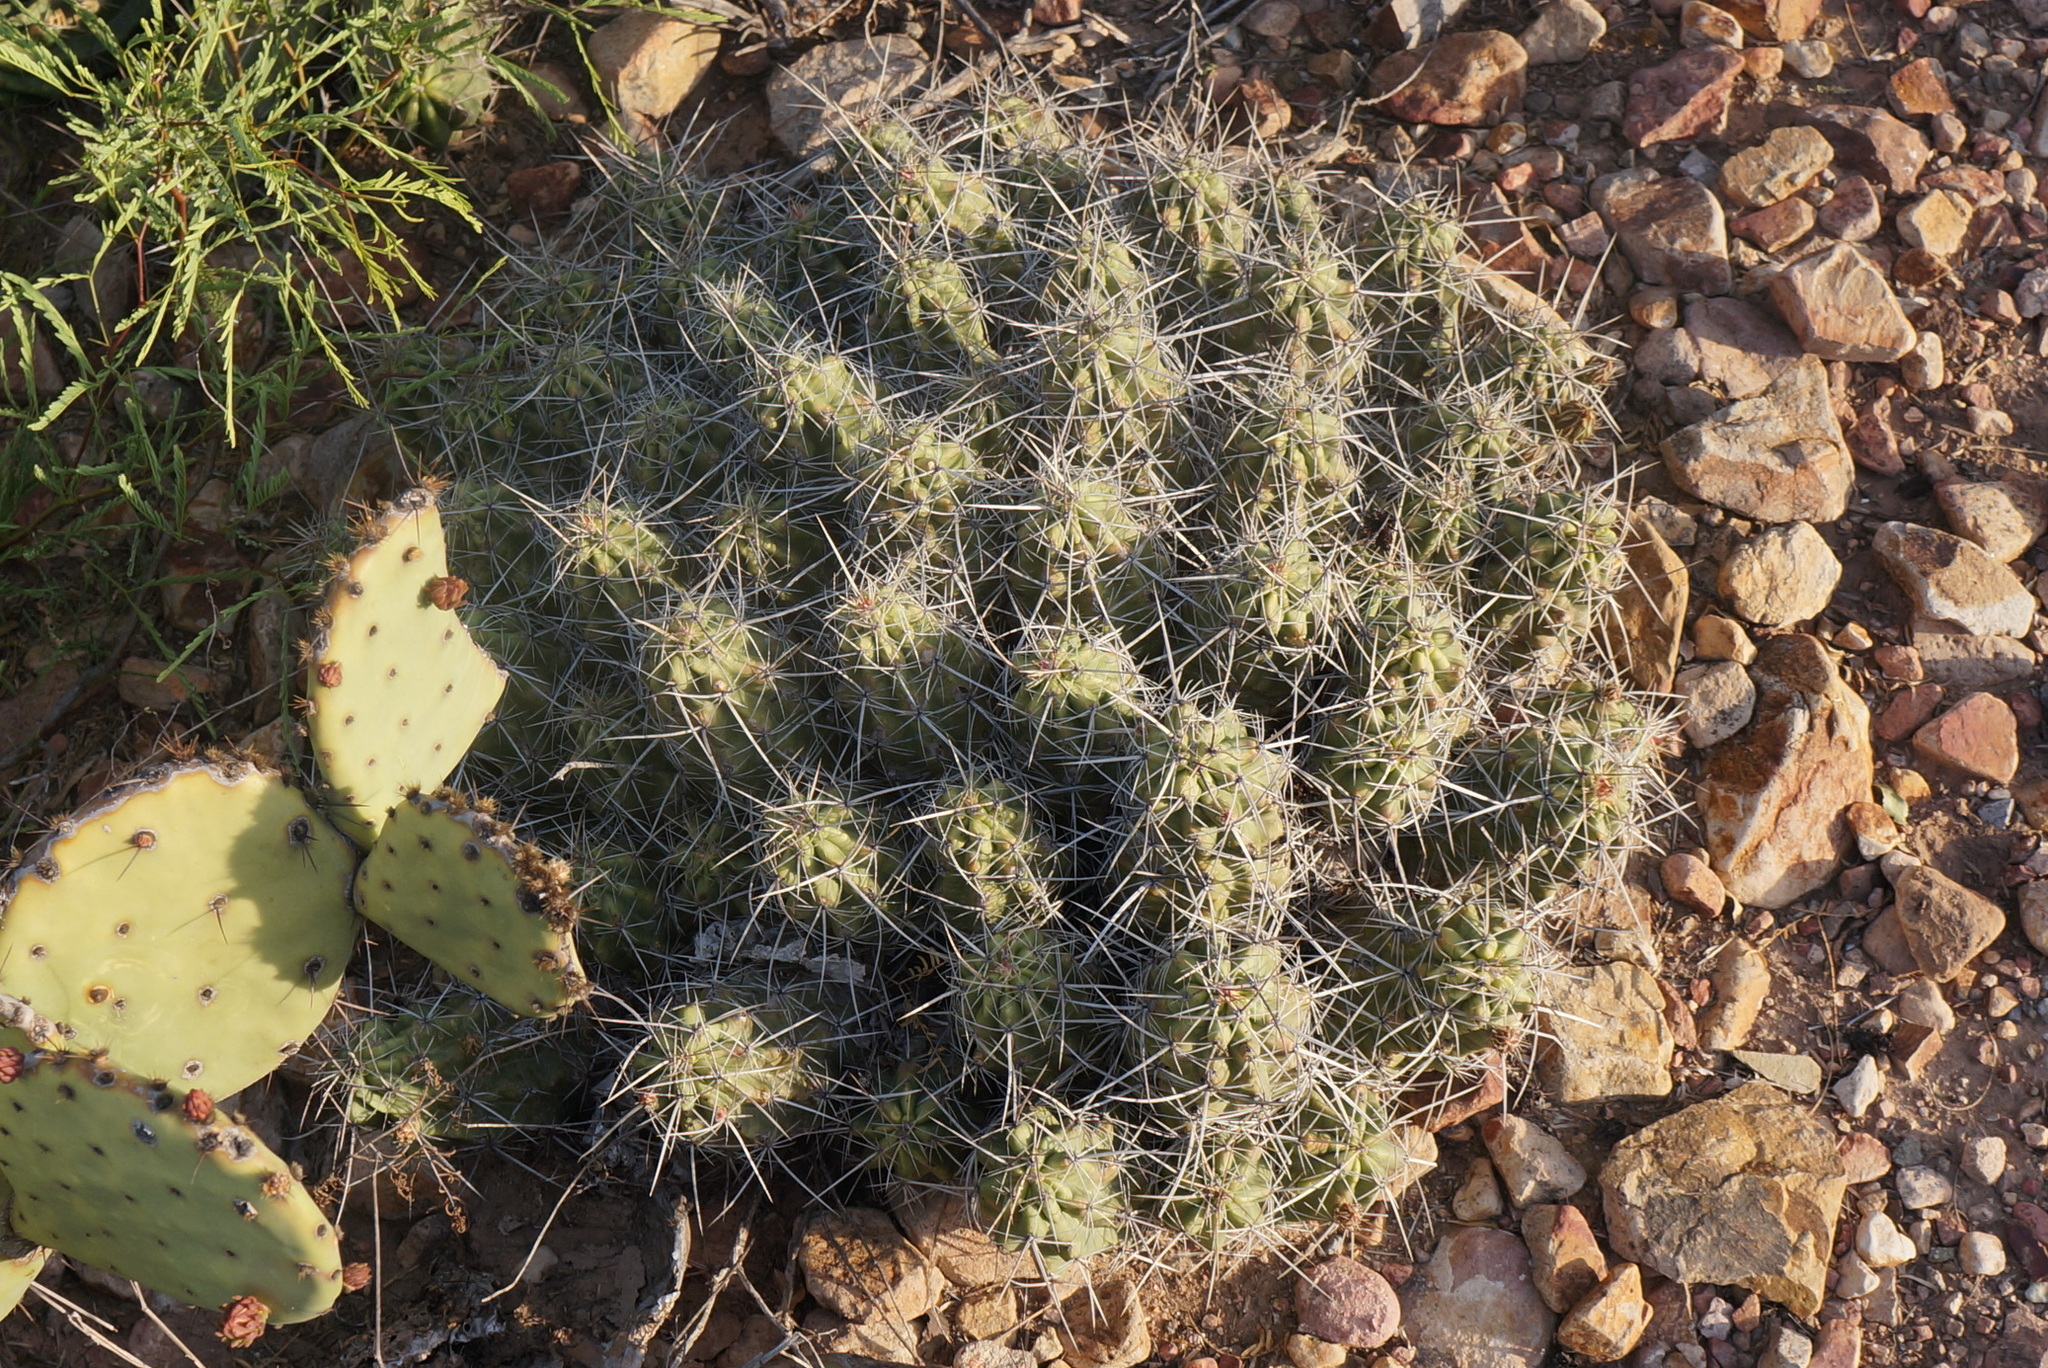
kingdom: Plantae
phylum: Tracheophyta
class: Magnoliopsida
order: Caryophyllales
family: Cactaceae
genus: Echinocereus
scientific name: Echinocereus enneacanthus
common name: Pitaya
